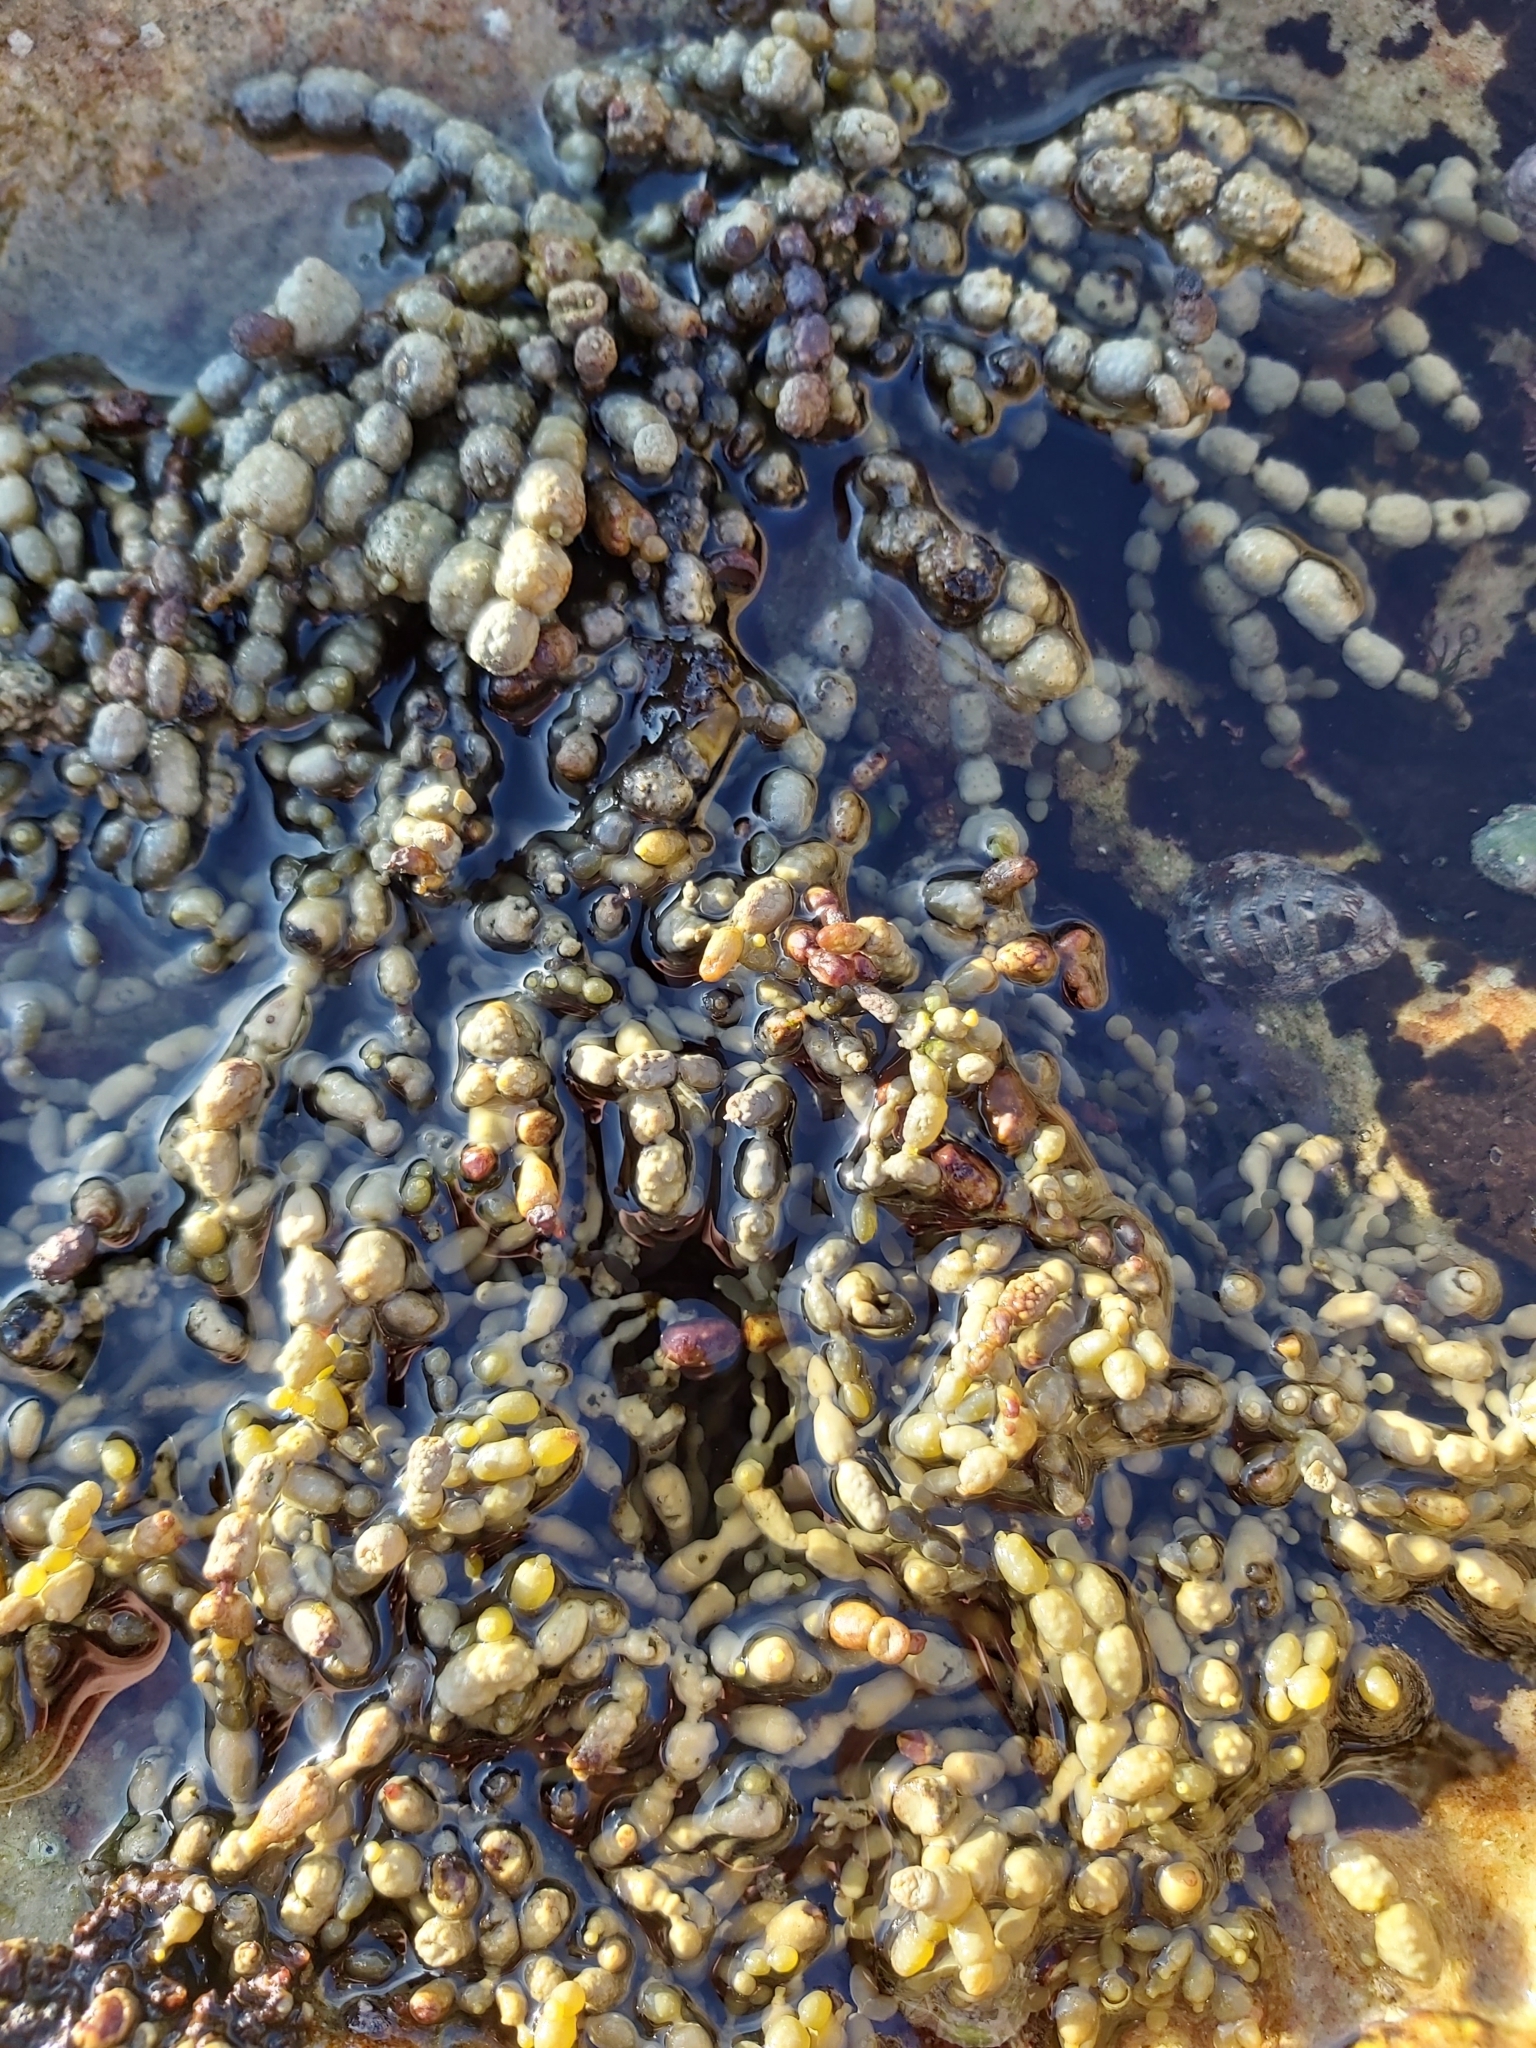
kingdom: Chromista
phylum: Ochrophyta
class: Phaeophyceae
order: Fucales
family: Hormosiraceae
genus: Hormosira
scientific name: Hormosira banksii
